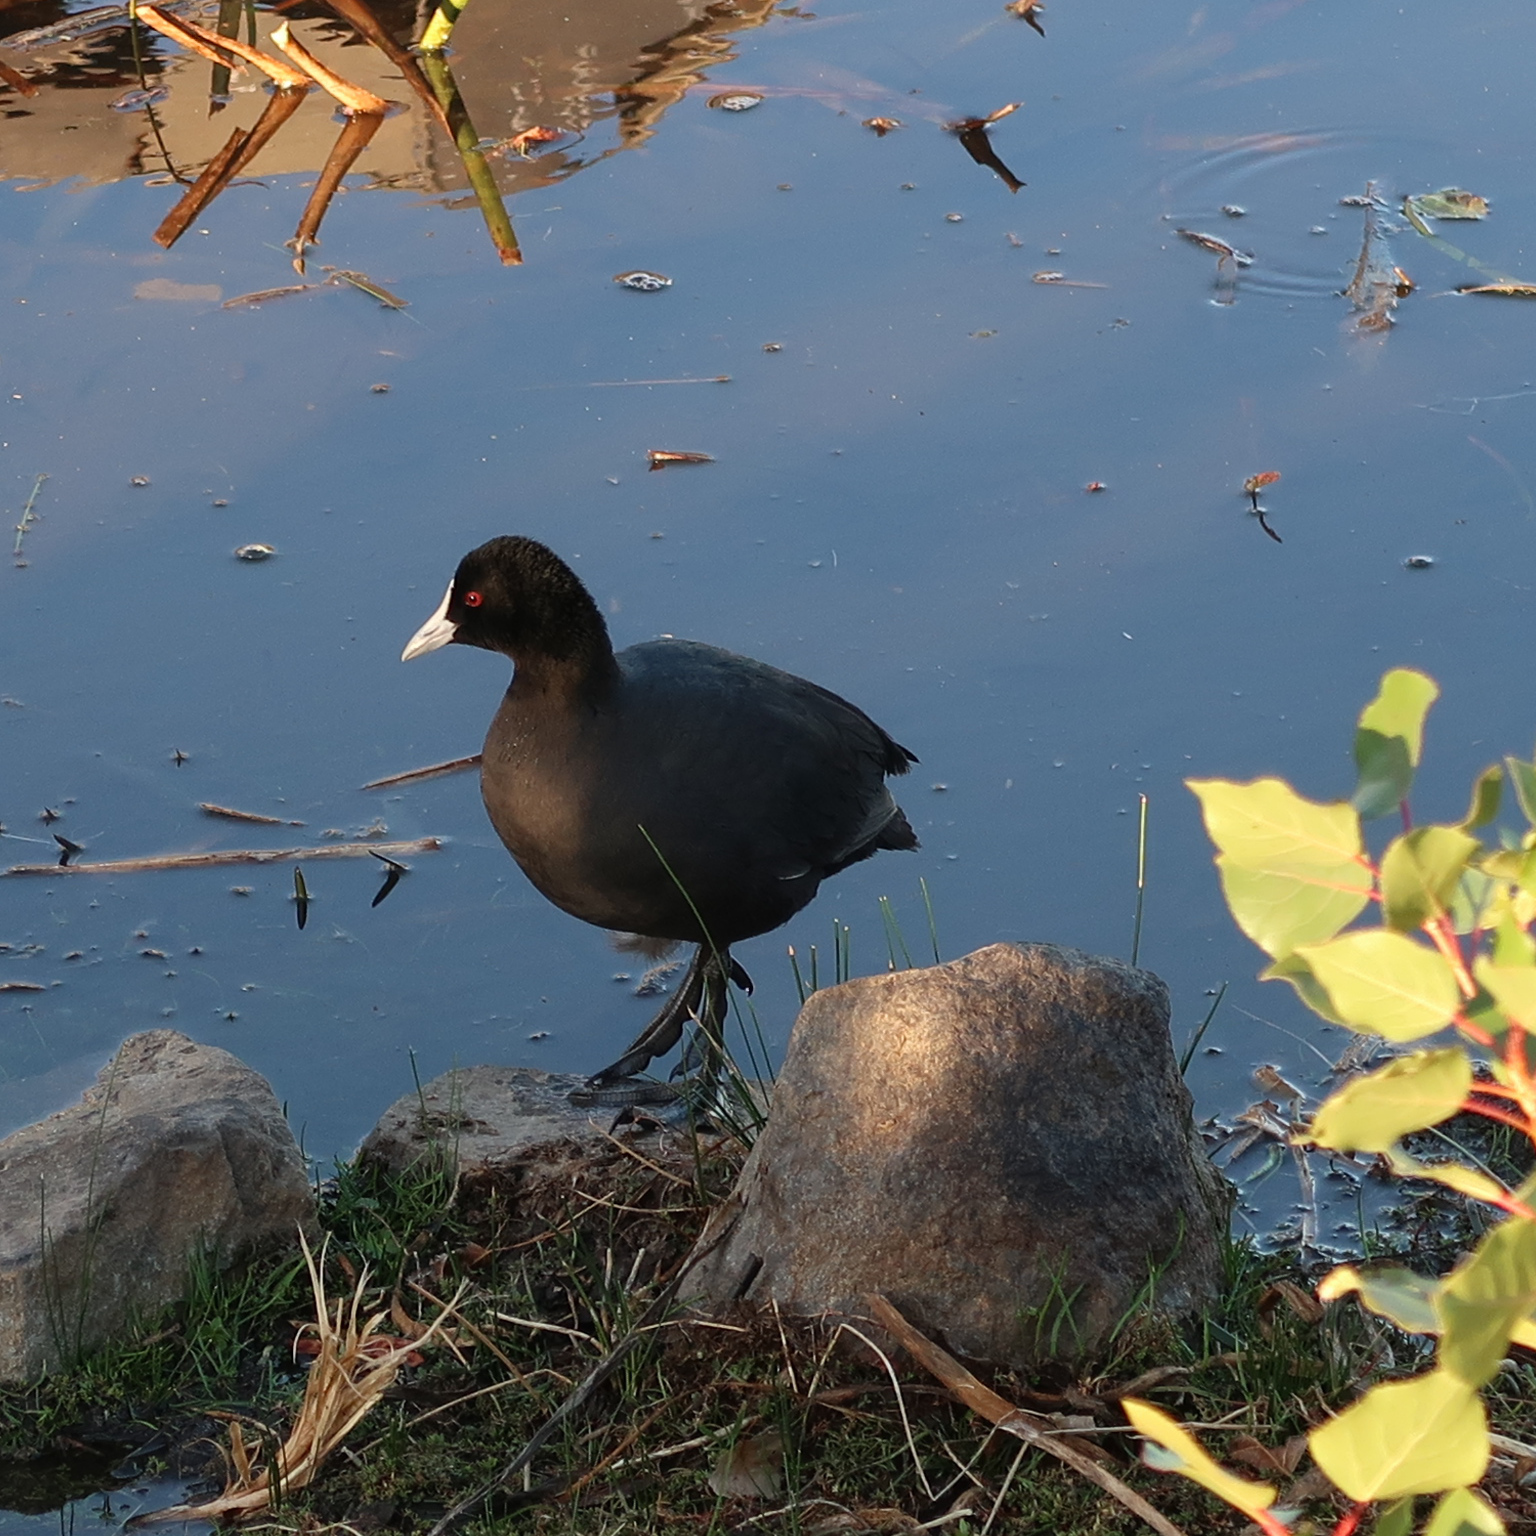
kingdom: Animalia
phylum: Chordata
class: Aves
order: Gruiformes
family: Rallidae
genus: Fulica
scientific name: Fulica atra
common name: Eurasian coot
